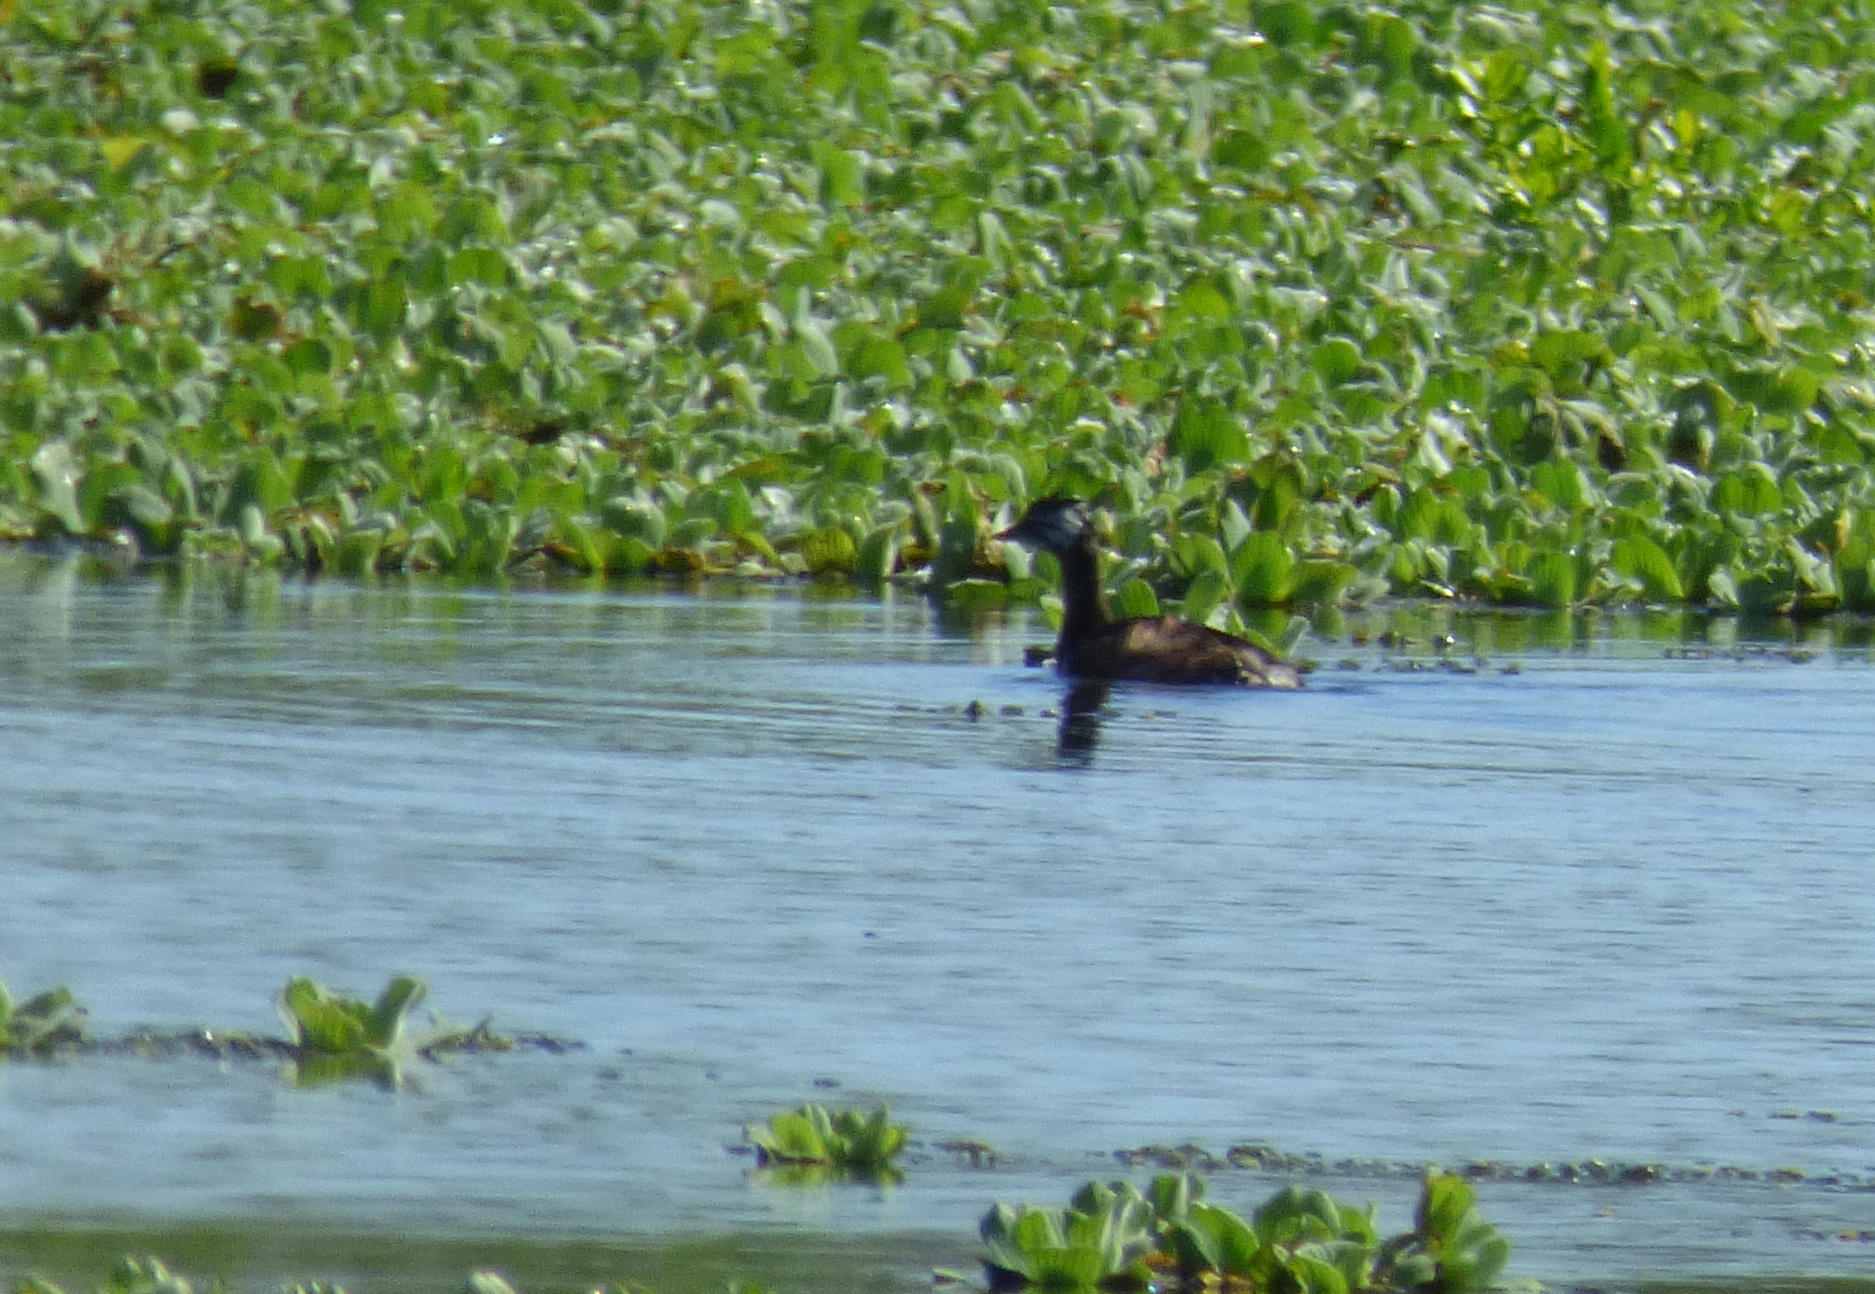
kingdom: Animalia
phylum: Chordata
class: Aves
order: Podicipediformes
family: Podicipedidae
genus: Rollandia
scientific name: Rollandia rolland
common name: White-tufted grebe
